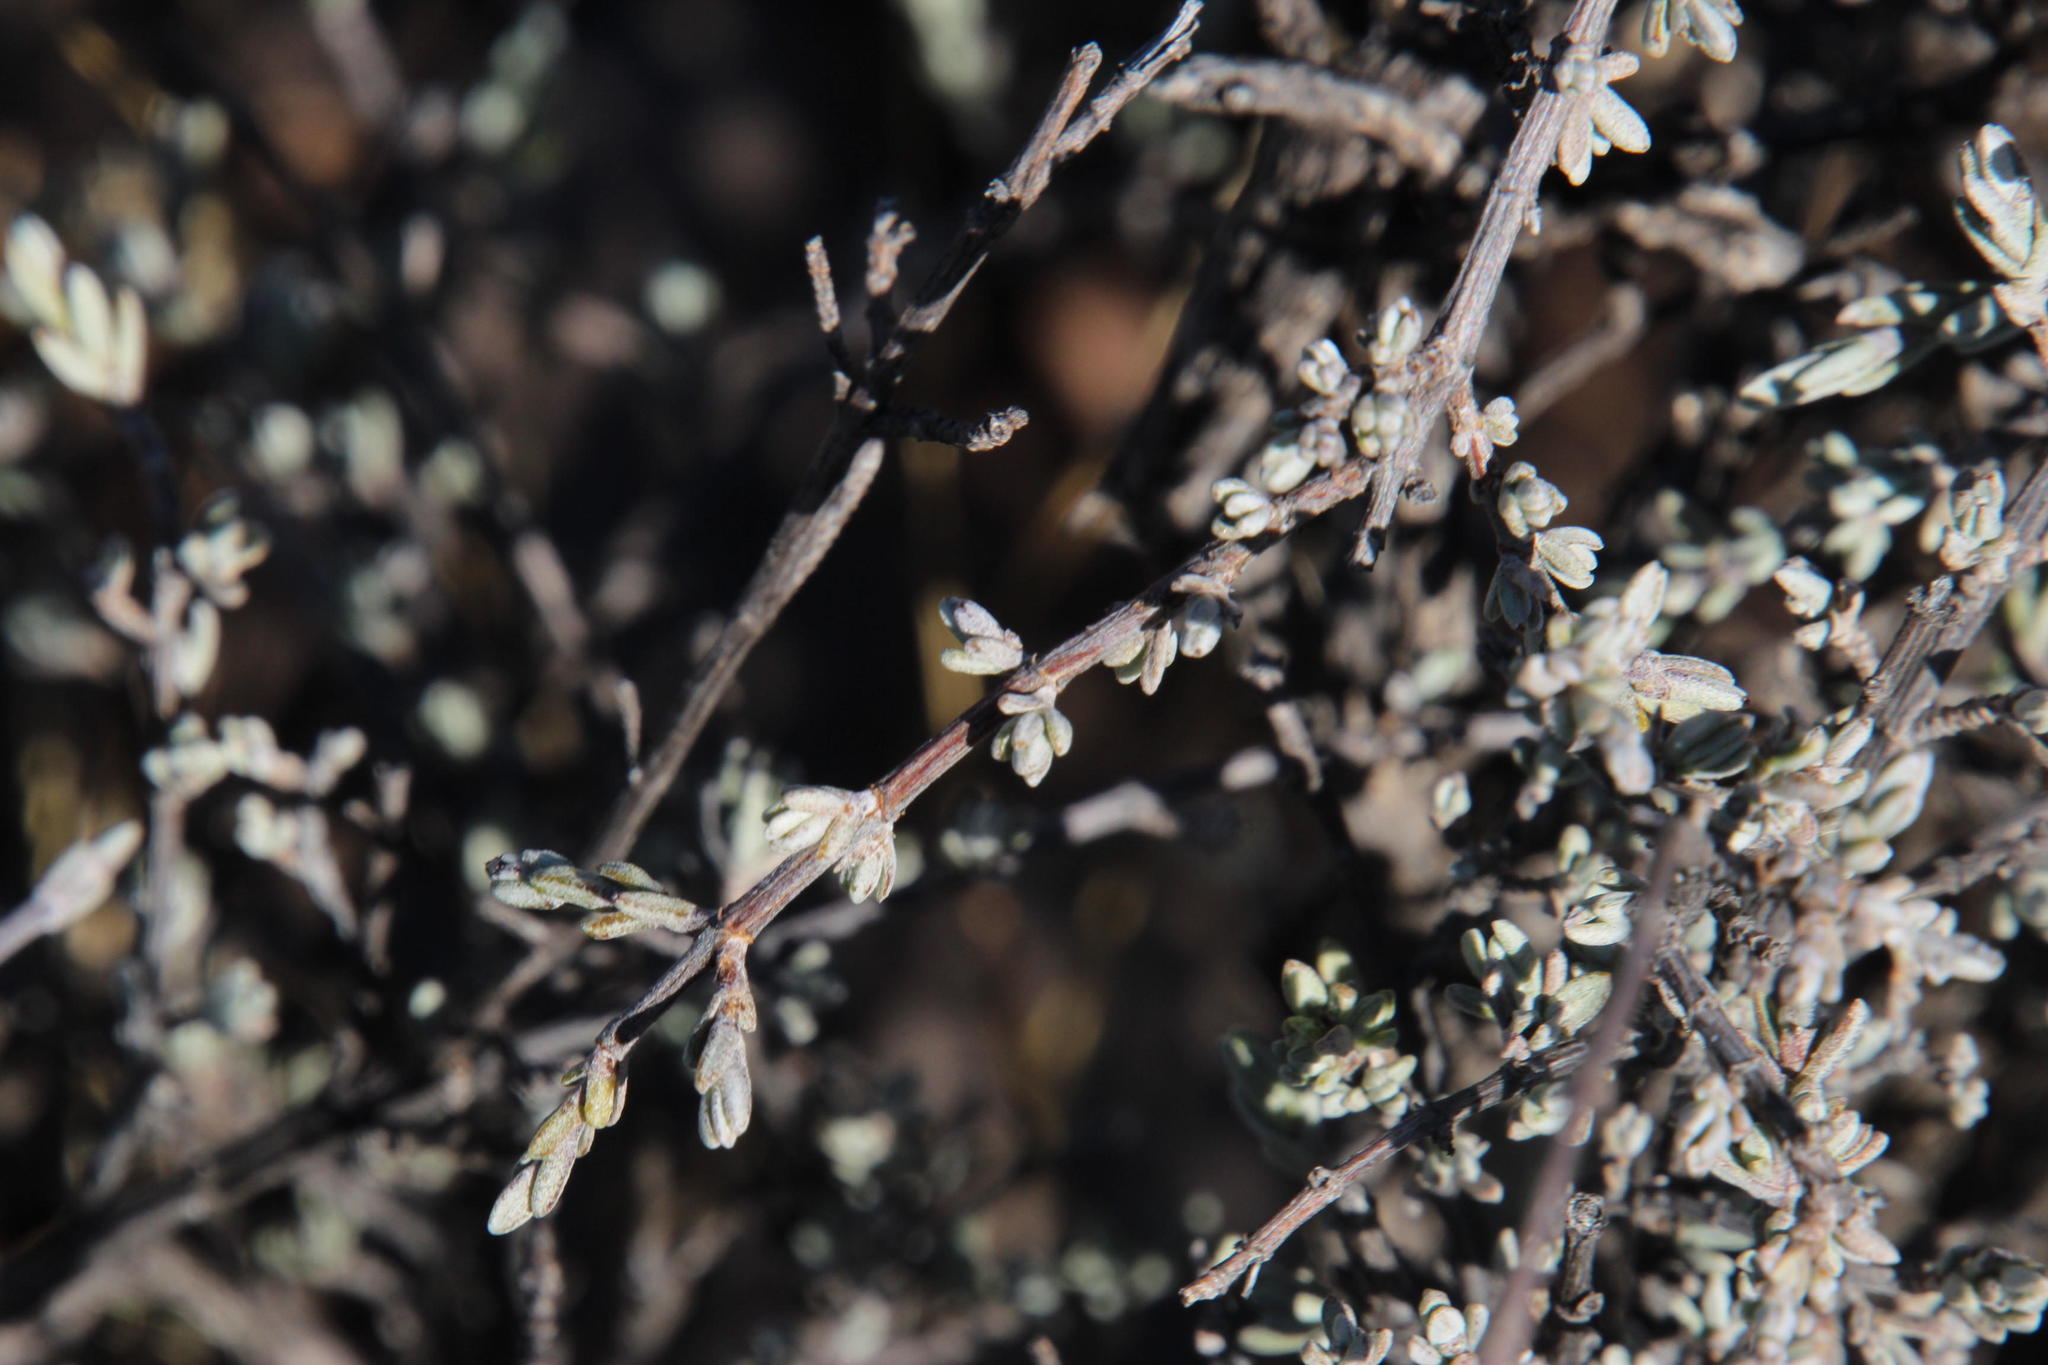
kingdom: Plantae
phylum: Tracheophyta
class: Magnoliopsida
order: Asterales
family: Asteraceae
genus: Pteronia
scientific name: Pteronia glauca
